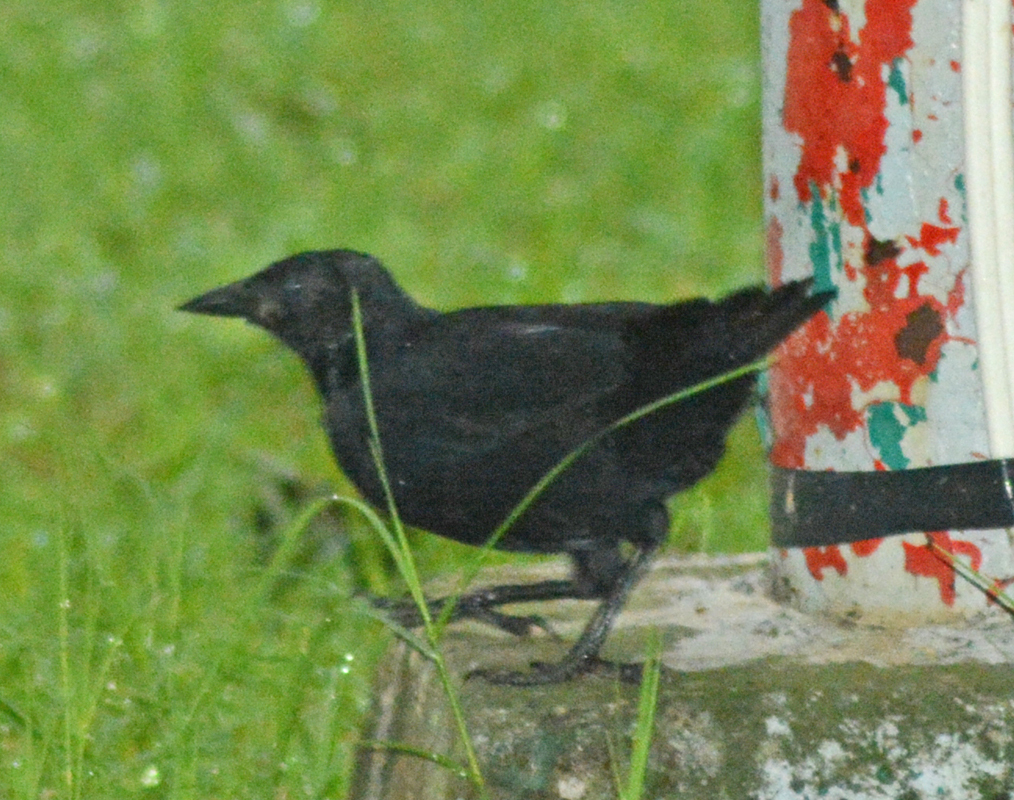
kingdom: Animalia
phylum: Chordata
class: Aves
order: Passeriformes
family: Icteridae
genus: Dives
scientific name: Dives dives
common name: Melodious blackbird
